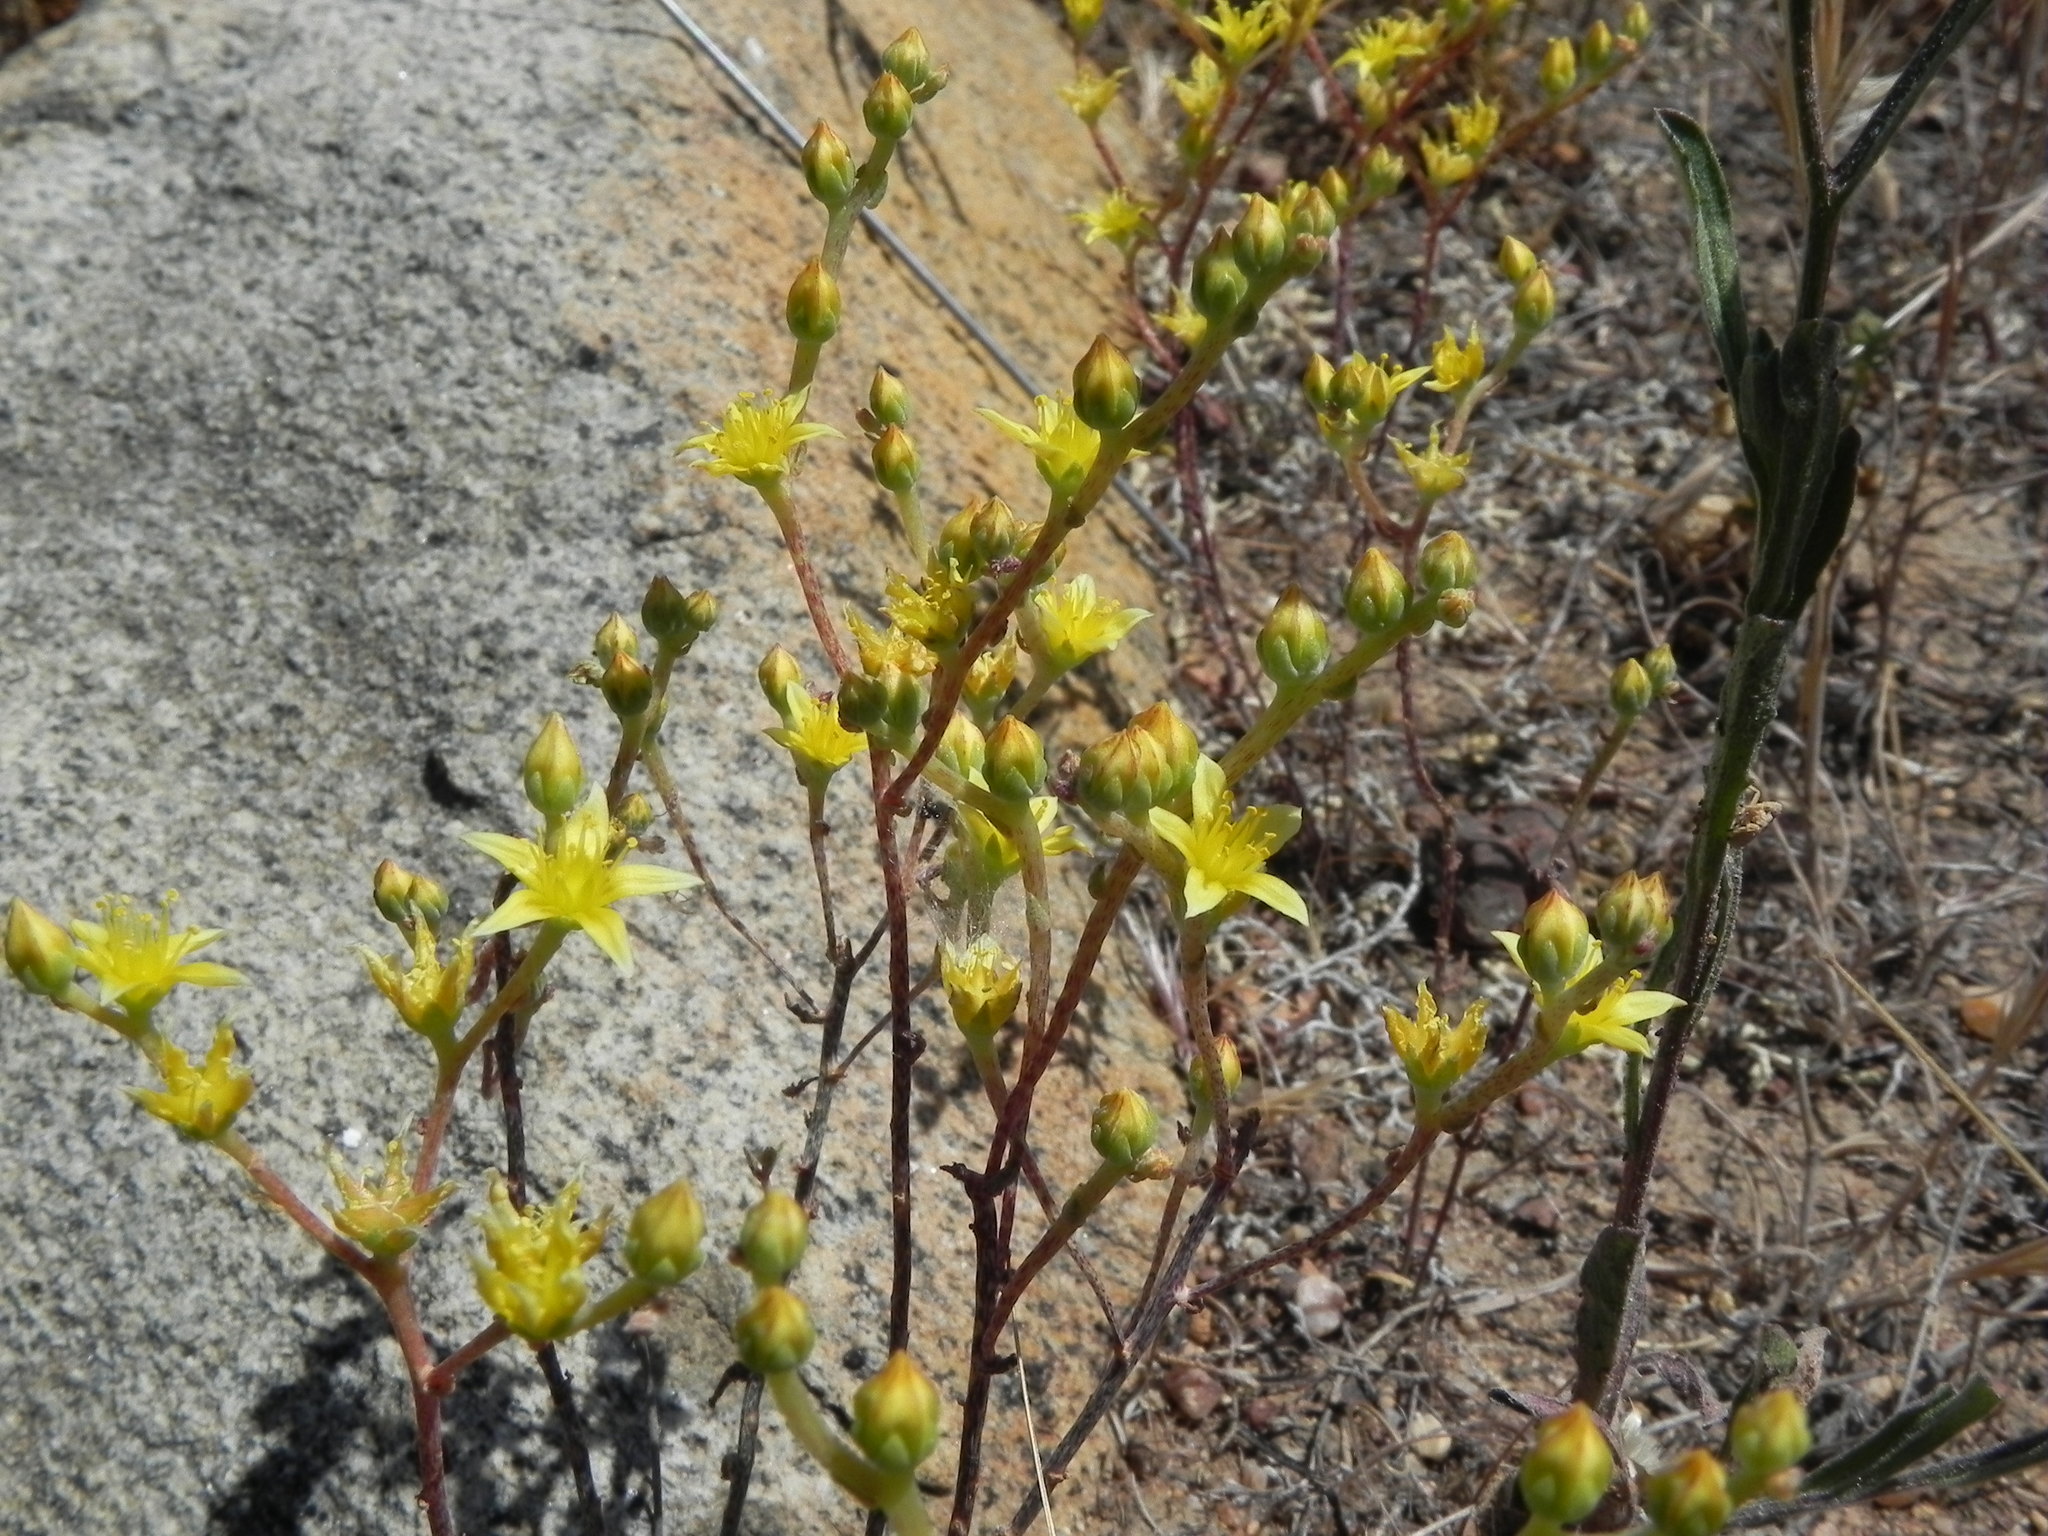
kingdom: Plantae
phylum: Tracheophyta
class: Magnoliopsida
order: Saxifragales
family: Crassulaceae
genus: Dudleya
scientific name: Dudleya variegata
